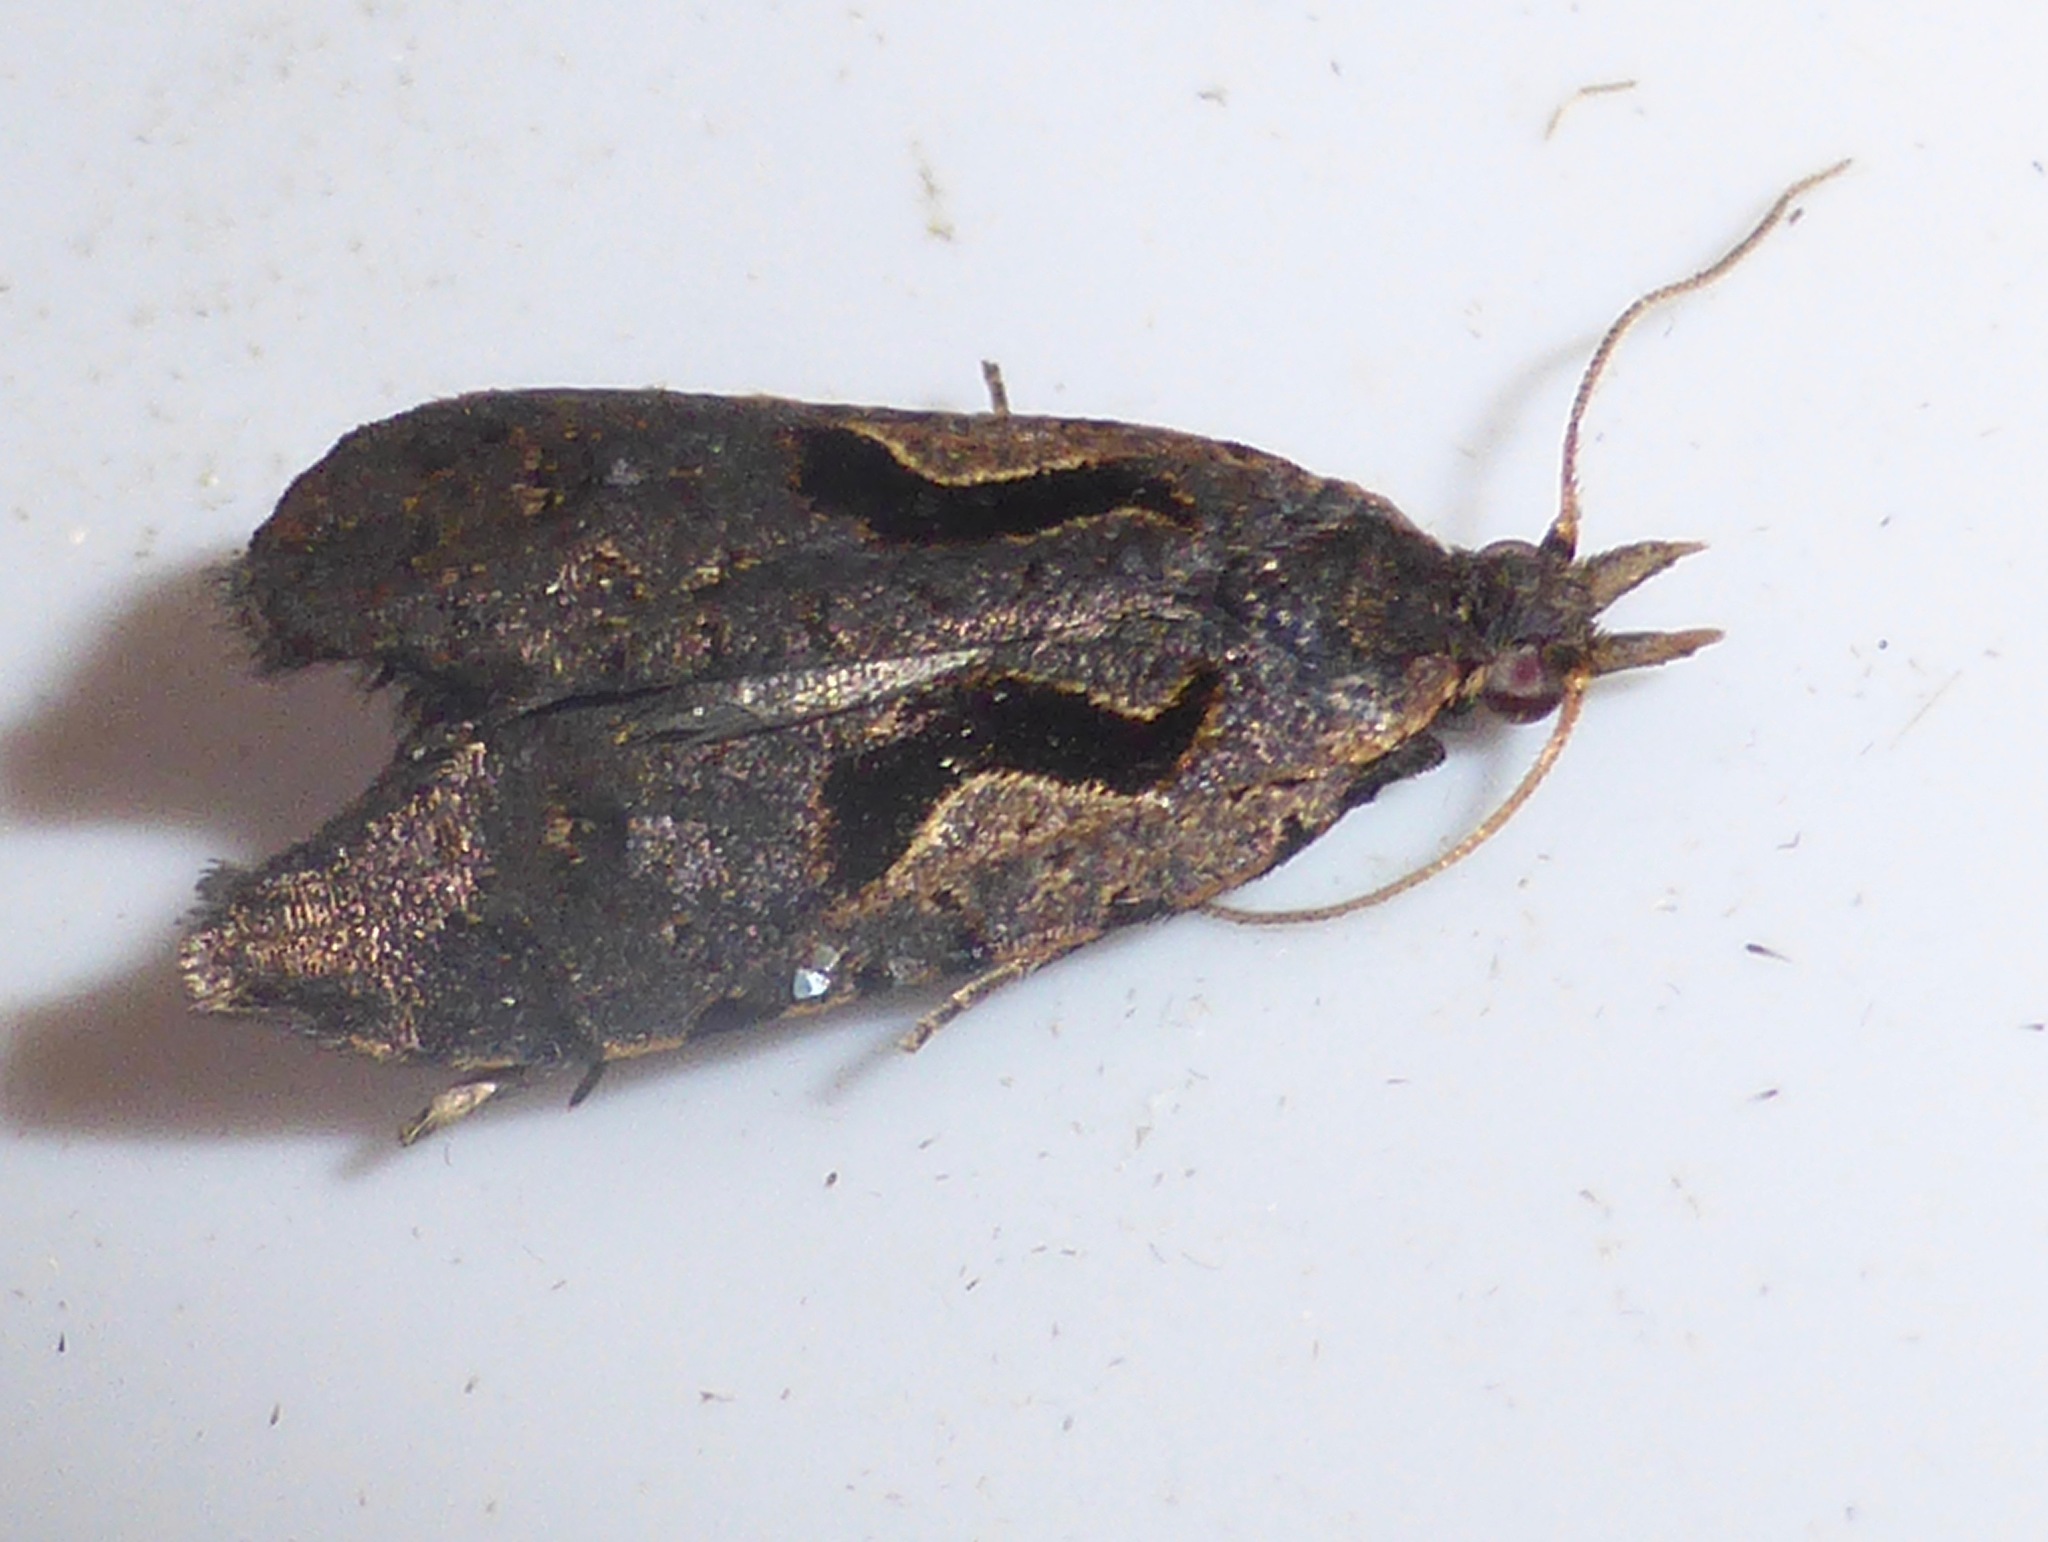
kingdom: Animalia
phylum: Arthropoda
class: Insecta
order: Lepidoptera
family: Tortricidae
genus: Cnephasia
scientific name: Cnephasia jactatana
